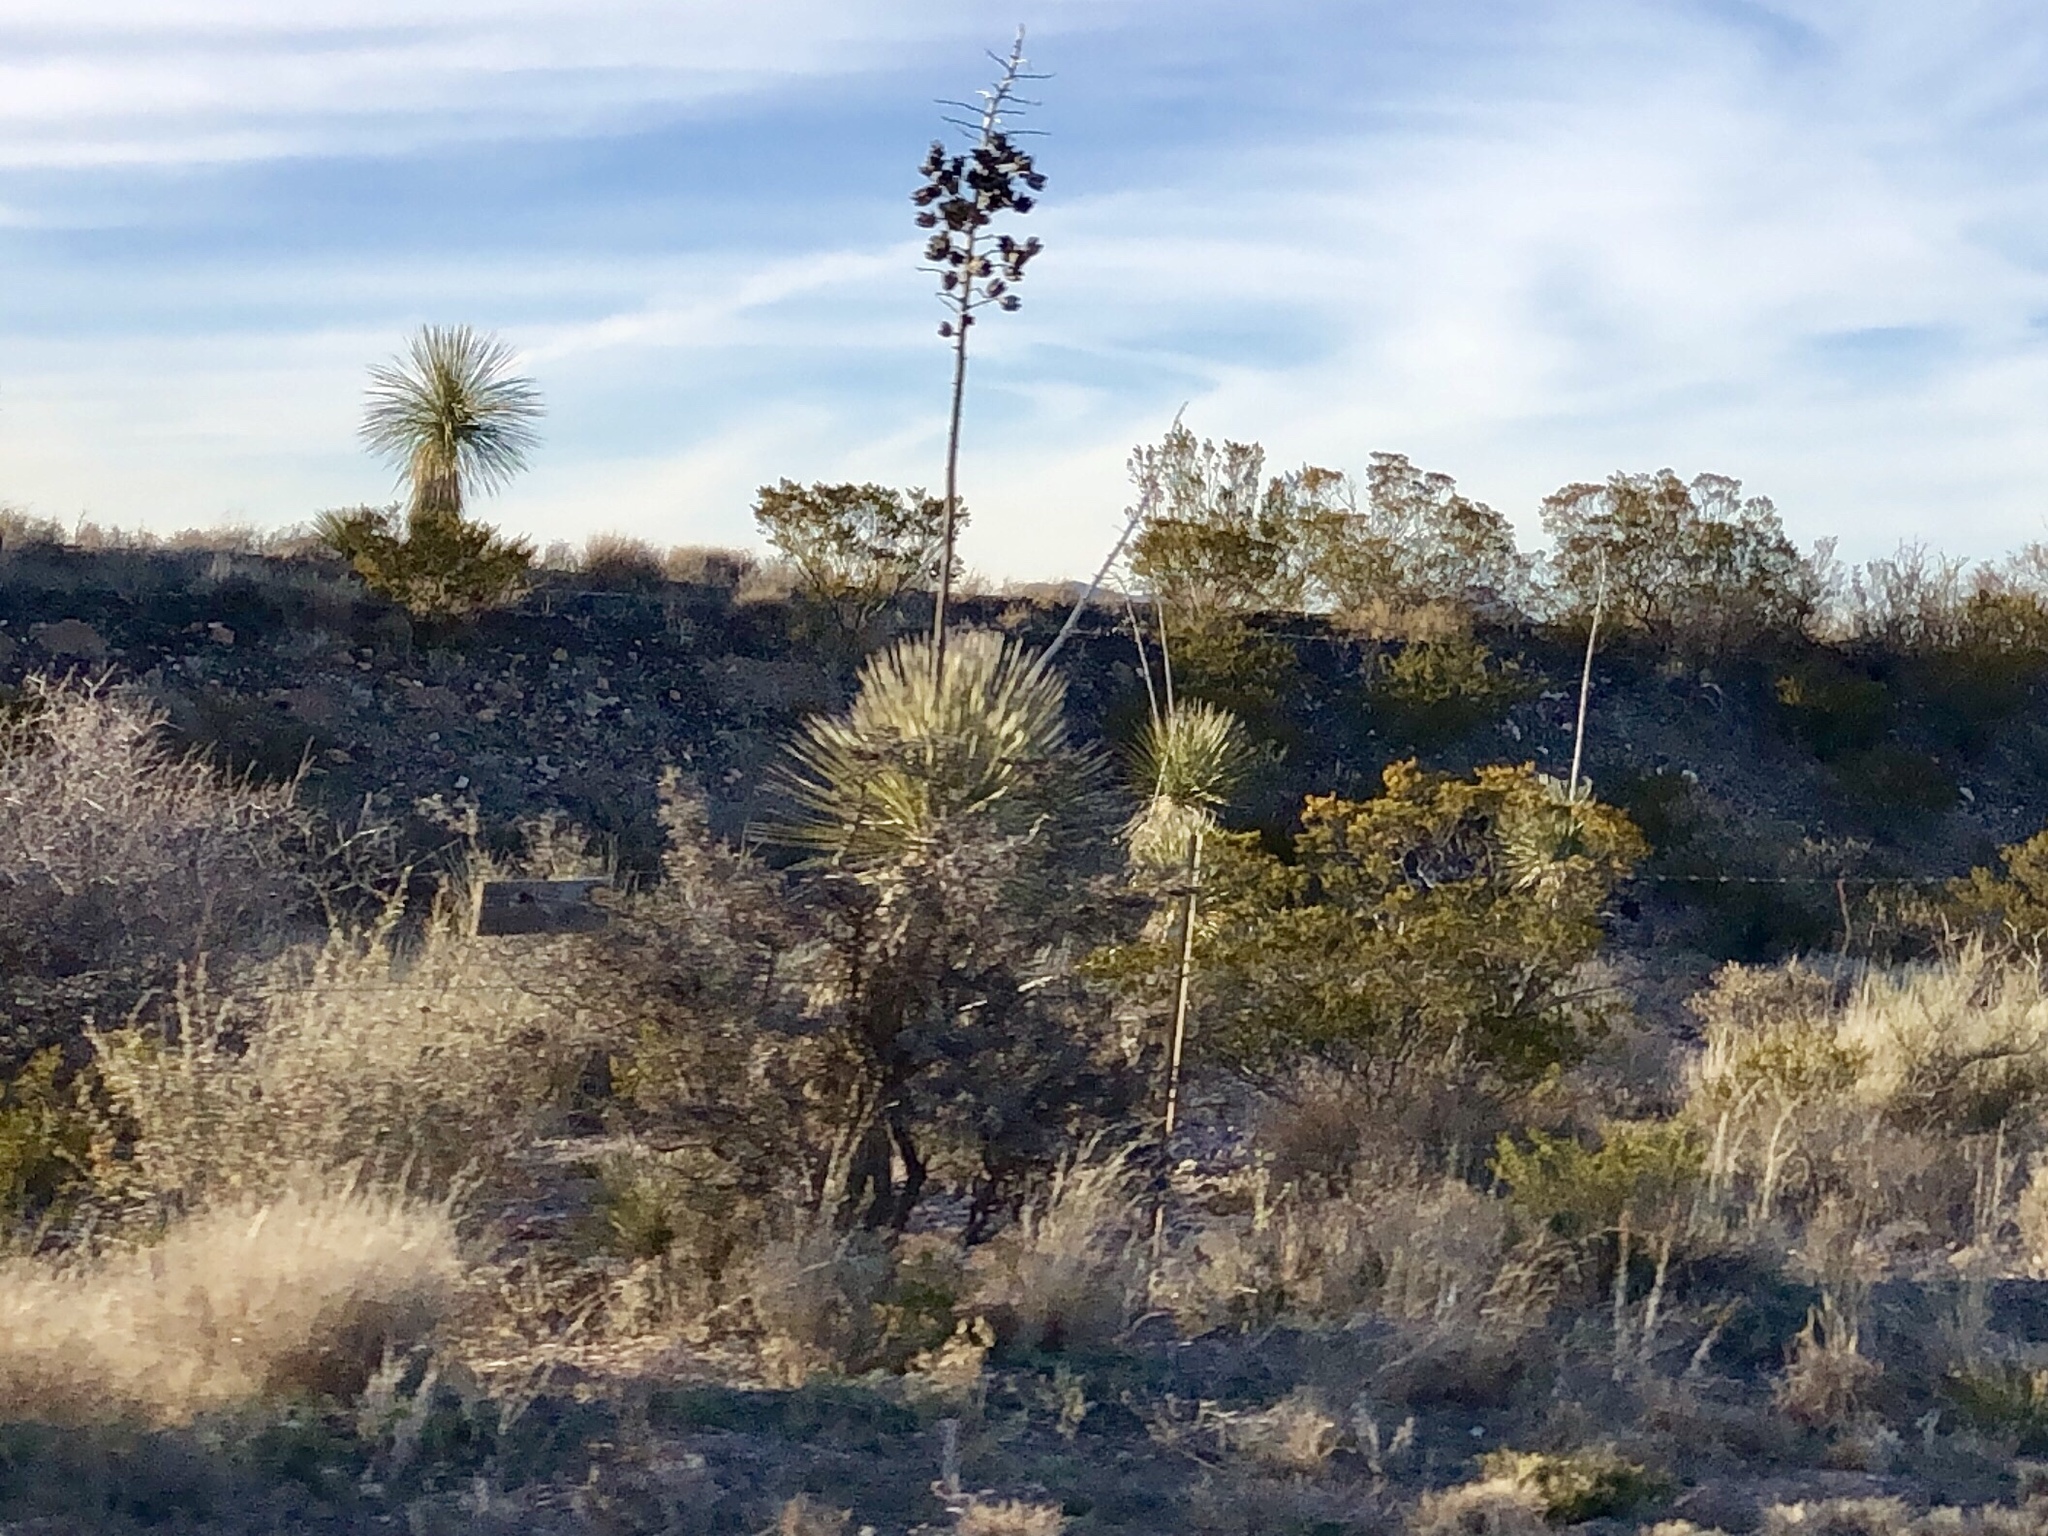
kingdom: Plantae
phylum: Tracheophyta
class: Liliopsida
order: Asparagales
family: Asparagaceae
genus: Yucca
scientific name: Yucca elata
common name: Palmella
